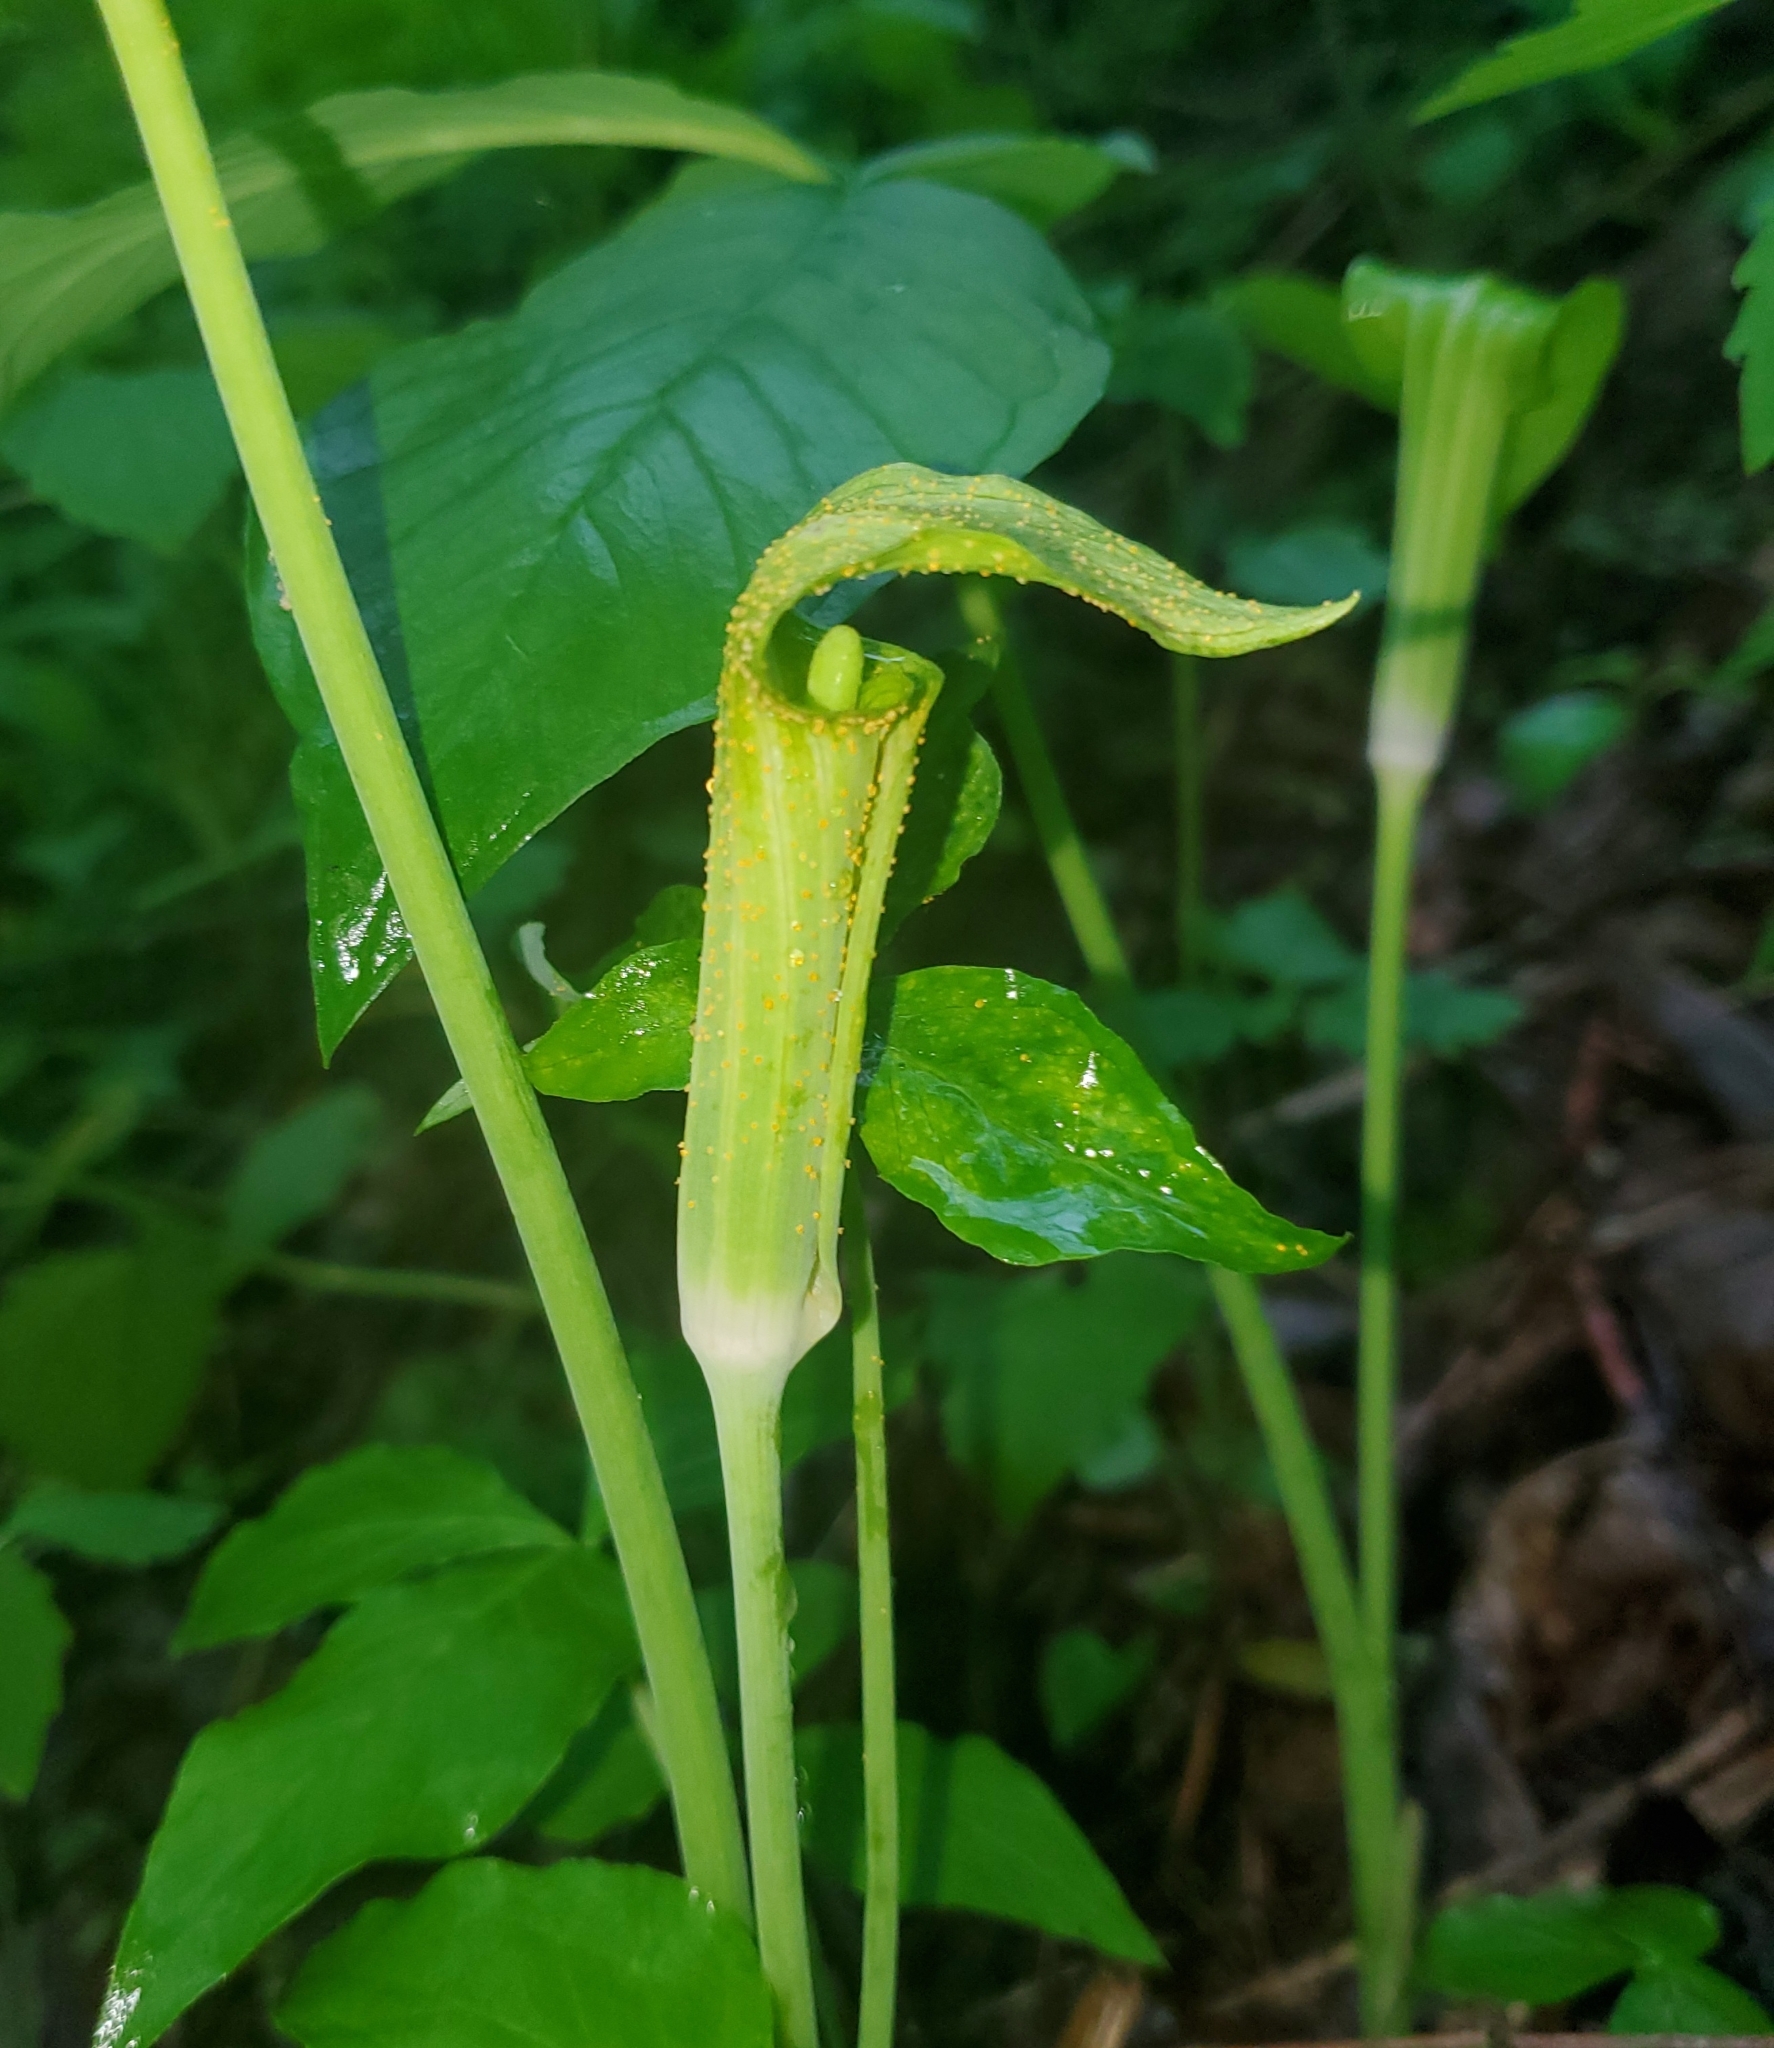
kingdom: Plantae
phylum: Tracheophyta
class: Liliopsida
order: Alismatales
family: Araceae
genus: Arisaema
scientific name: Arisaema triphyllum
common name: Jack-in-the-pulpit
